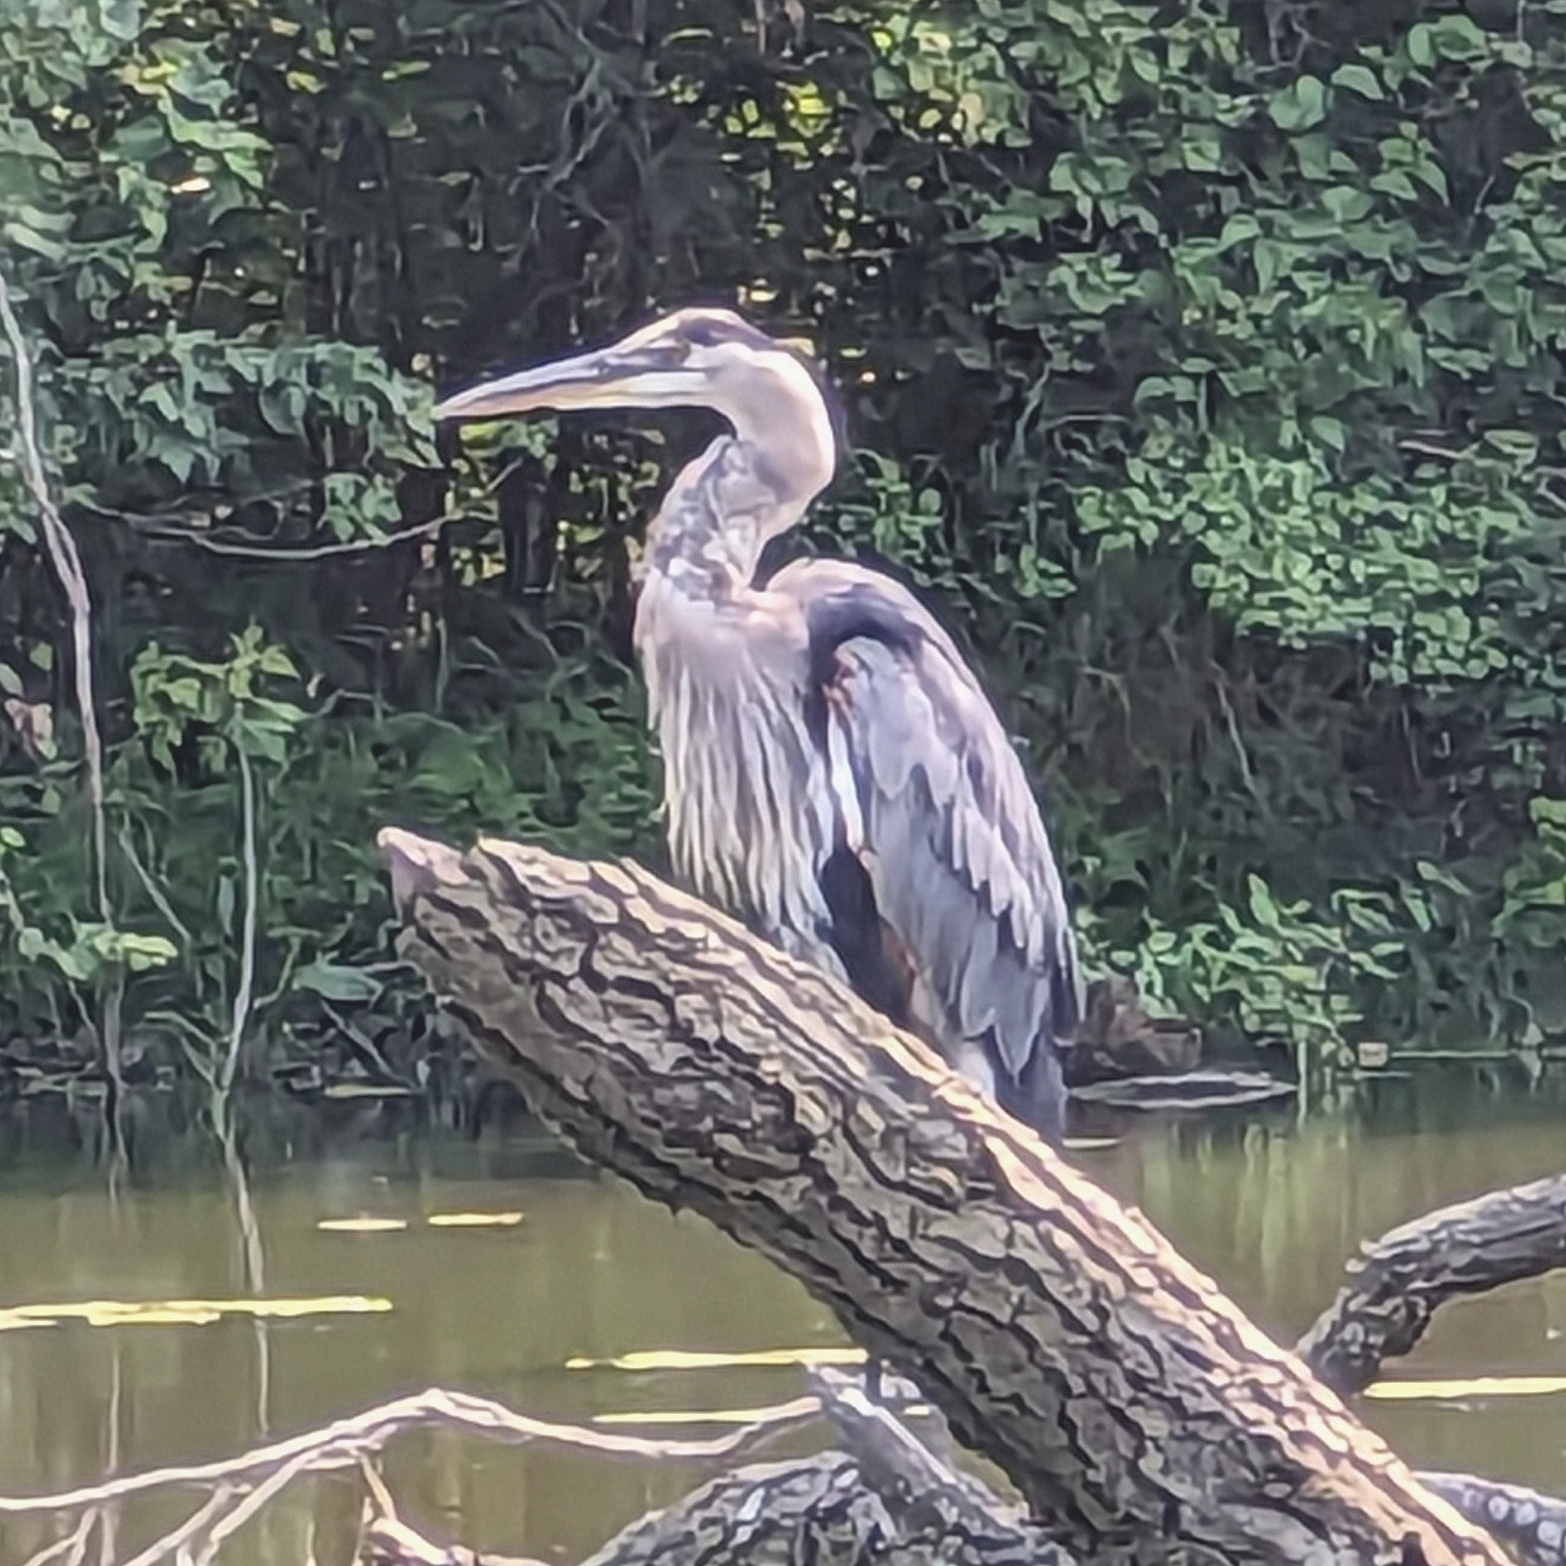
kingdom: Animalia
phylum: Chordata
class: Aves
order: Pelecaniformes
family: Ardeidae
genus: Ardea
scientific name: Ardea herodias
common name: Great blue heron
